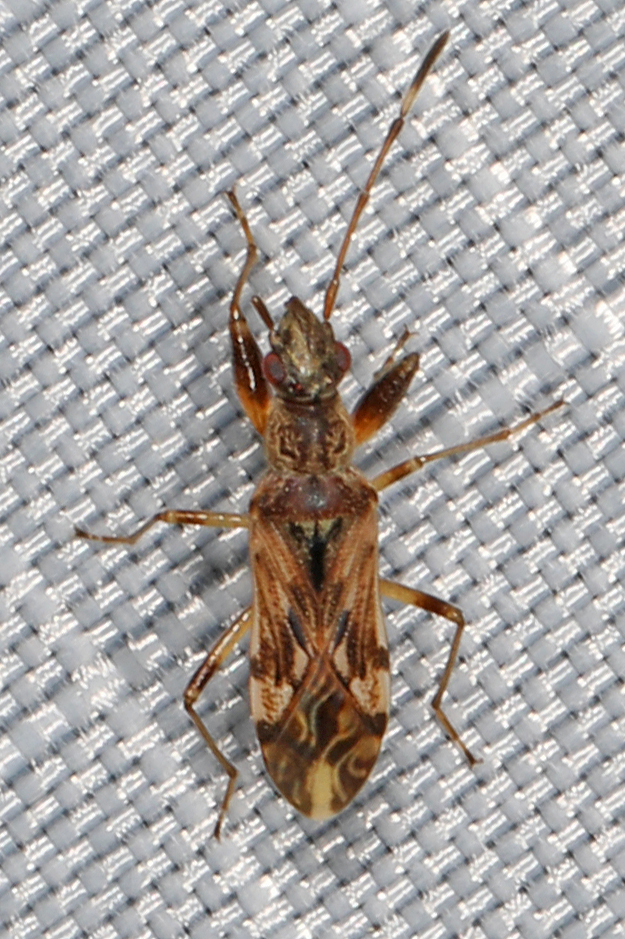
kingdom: Animalia
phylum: Arthropoda
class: Insecta
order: Hemiptera
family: Rhyparochromidae
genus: Neopamera
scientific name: Neopamera albocincta
